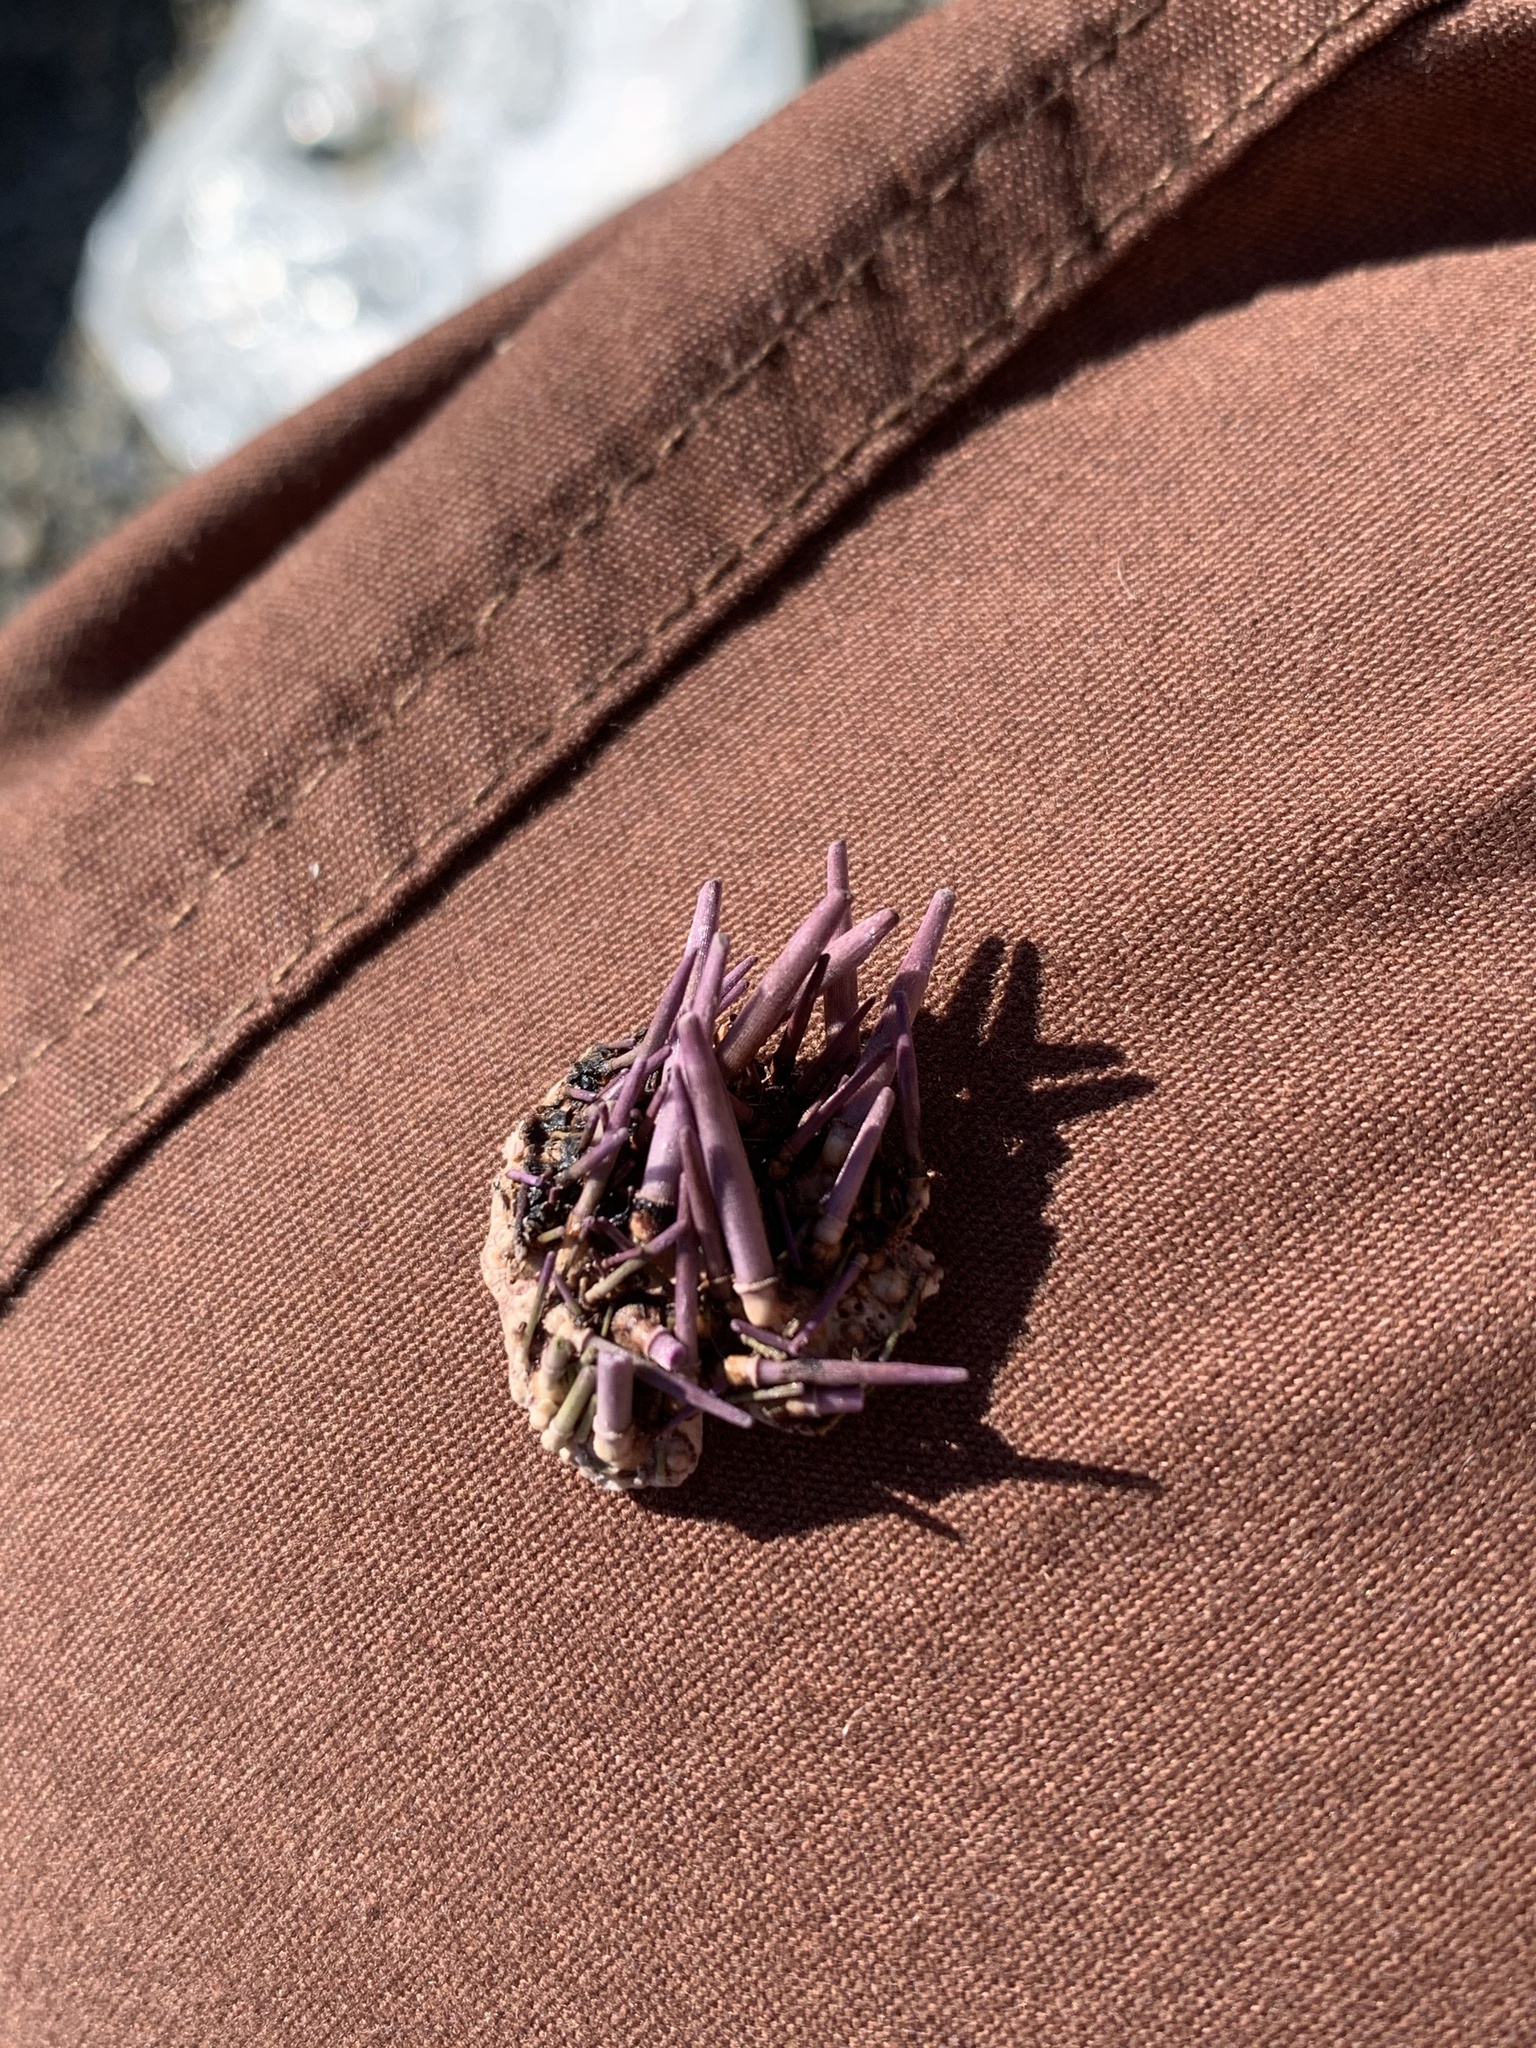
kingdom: Animalia
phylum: Echinodermata
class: Echinoidea
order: Camarodonta
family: Strongylocentrotidae
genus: Strongylocentrotus
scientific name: Strongylocentrotus purpuratus
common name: Purple sea urchin
